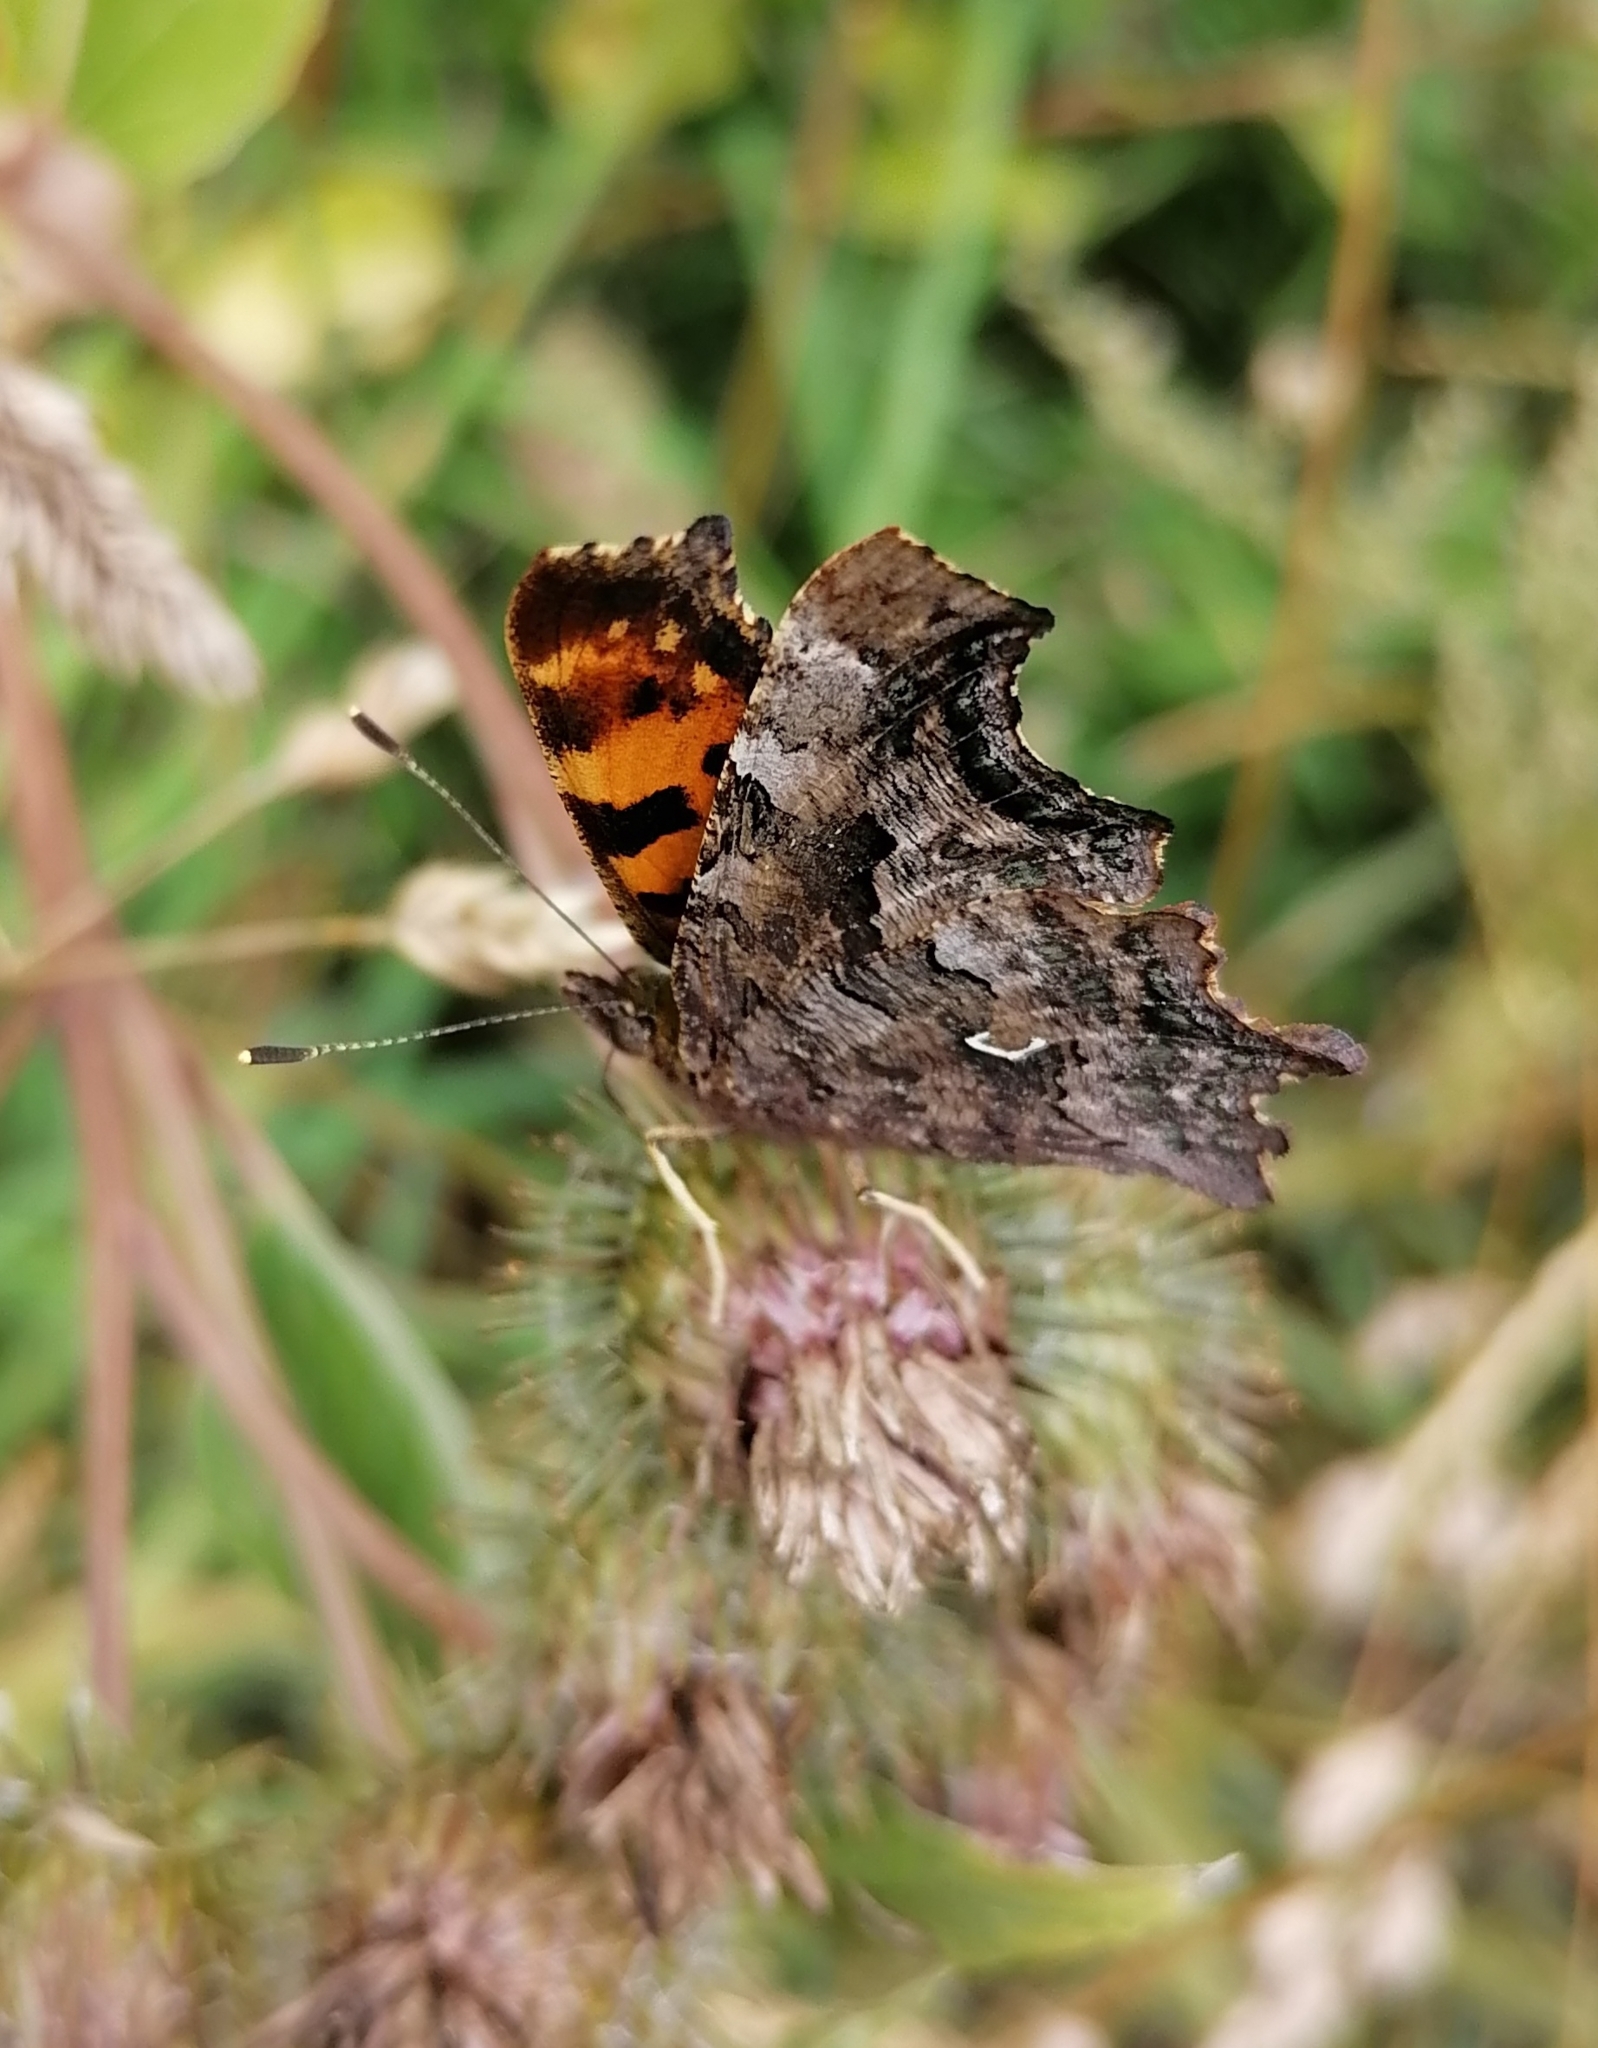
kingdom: Animalia
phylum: Arthropoda
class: Insecta
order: Lepidoptera
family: Nymphalidae
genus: Polygonia
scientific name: Polygonia c-album
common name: Comma
